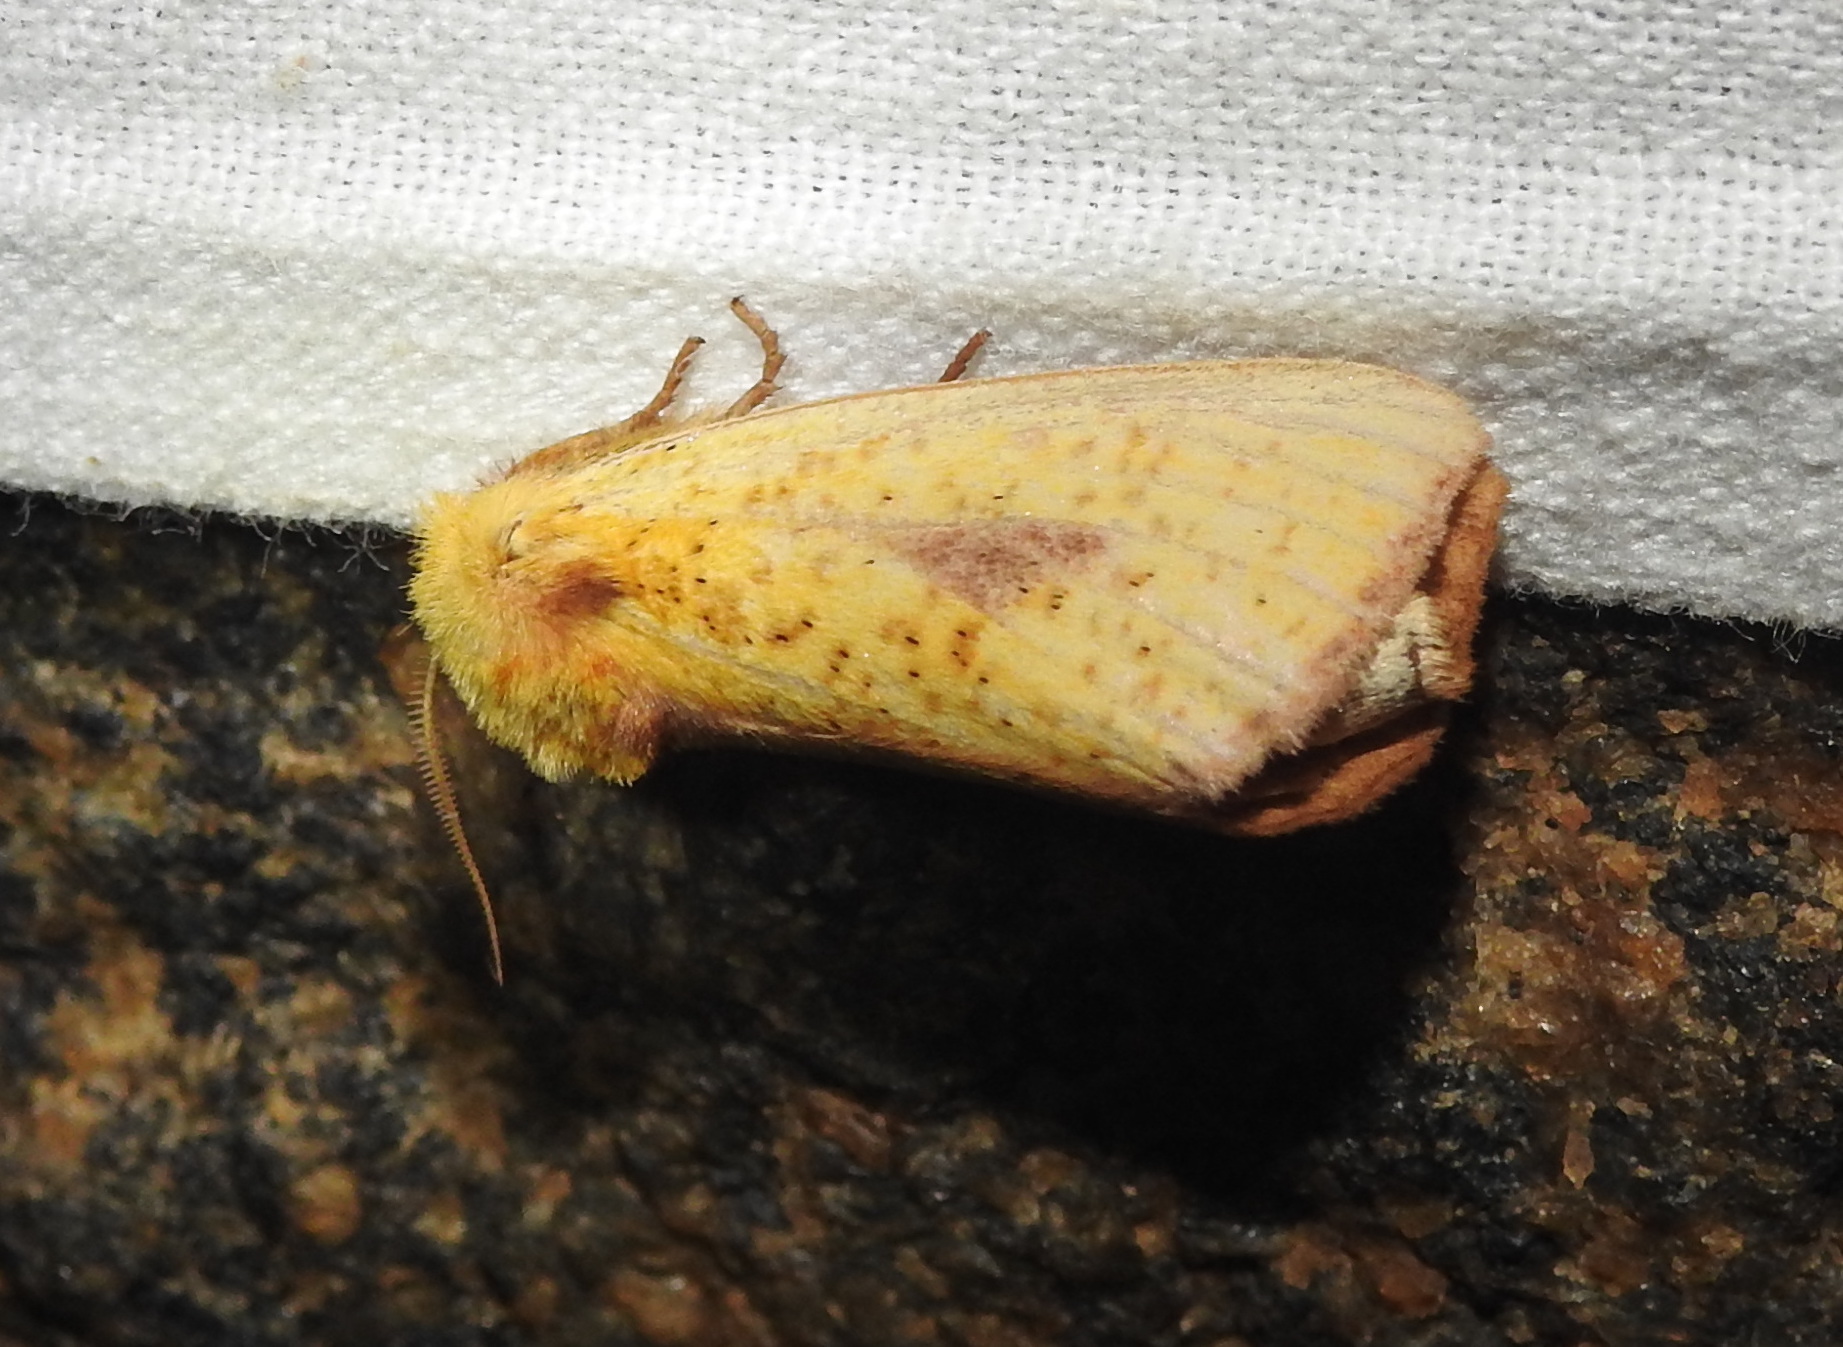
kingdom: Animalia
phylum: Arthropoda
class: Insecta
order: Lepidoptera
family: Notodontidae
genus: Antheua
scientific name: Antheua servula
